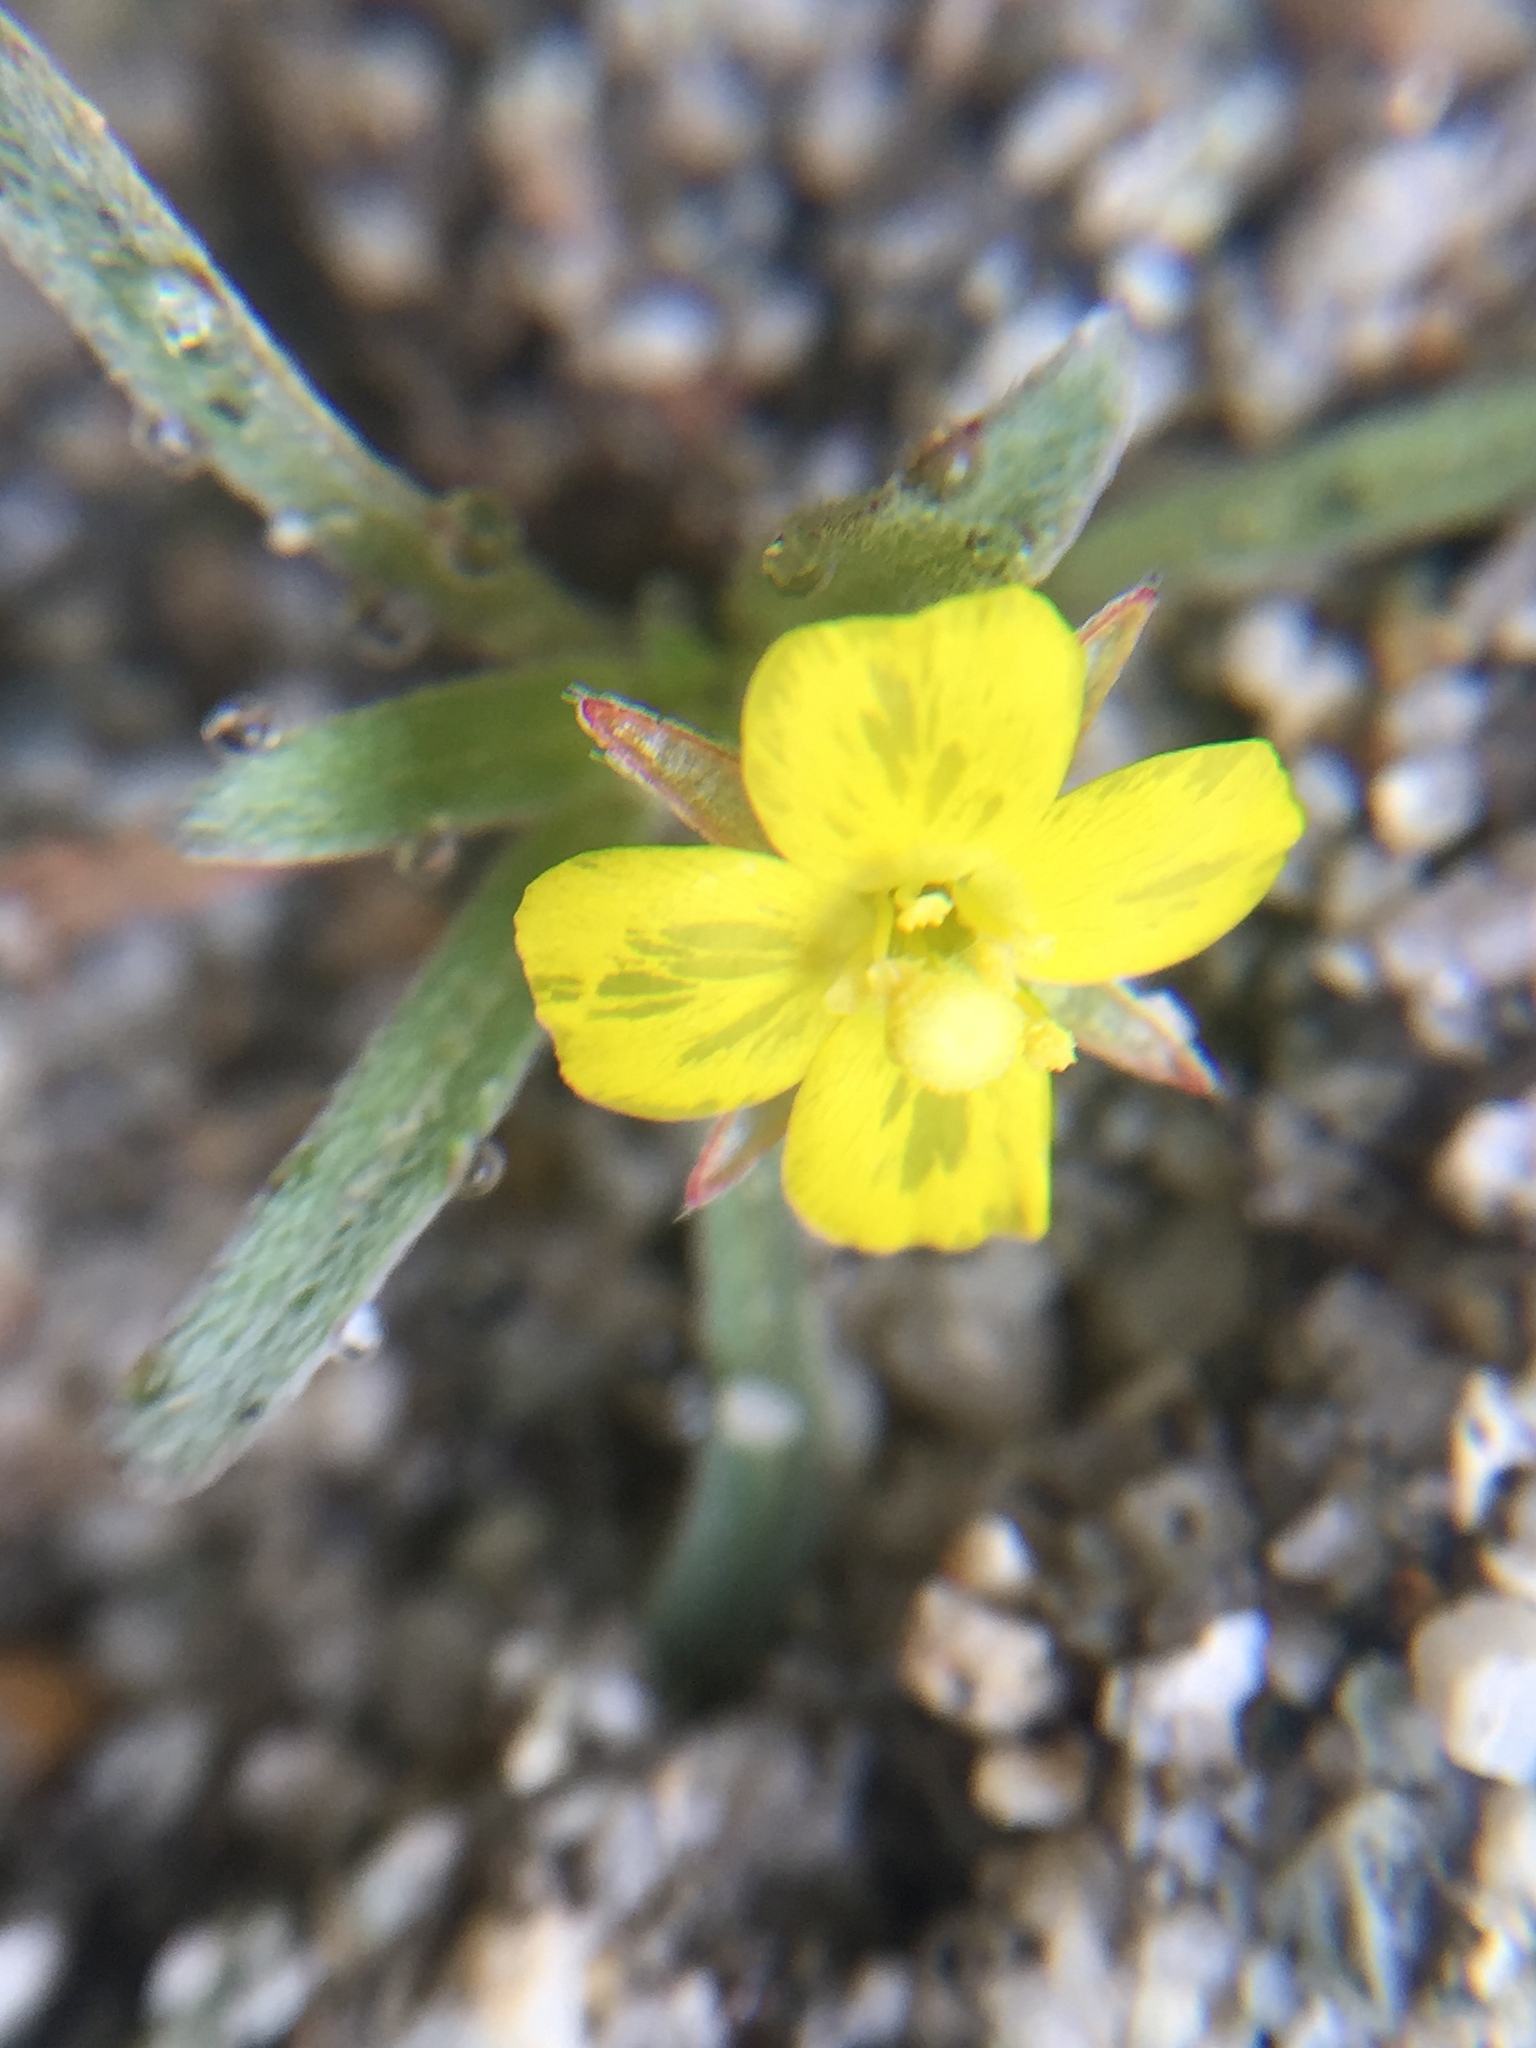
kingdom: Plantae
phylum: Tracheophyta
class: Magnoliopsida
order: Myrtales
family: Onagraceae
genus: Camissoniopsis
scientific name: Camissoniopsis pallida
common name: Paleyellow suncup
